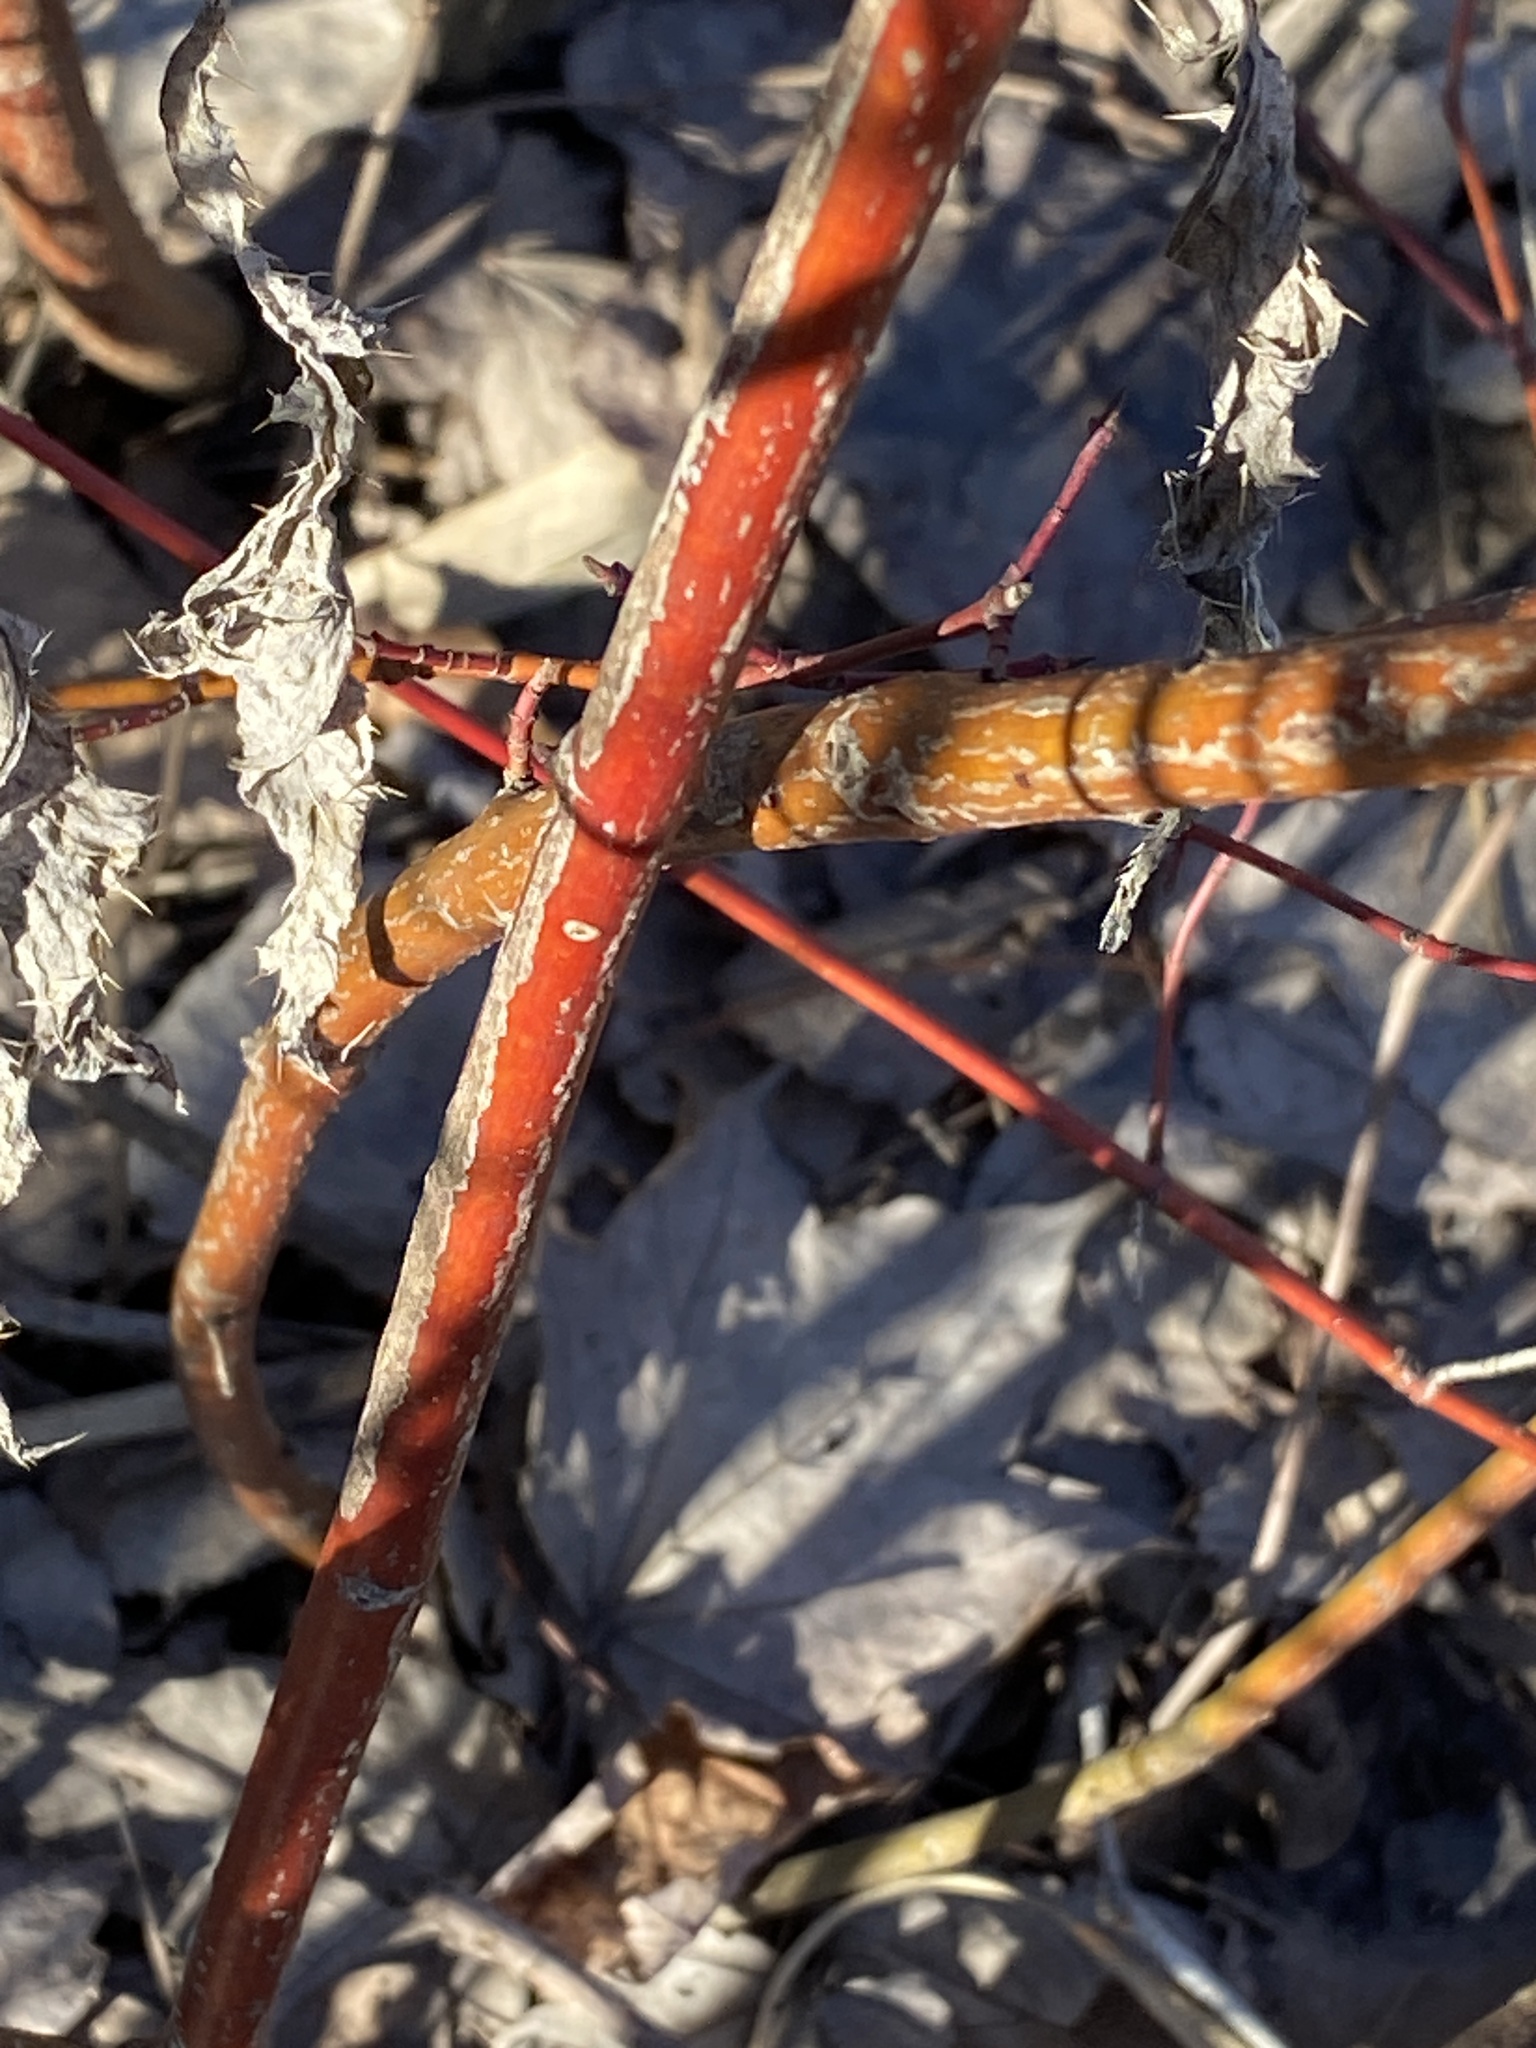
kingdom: Plantae
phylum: Tracheophyta
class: Magnoliopsida
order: Cornales
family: Cornaceae
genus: Cornus
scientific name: Cornus amomum
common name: Silky dogwood
